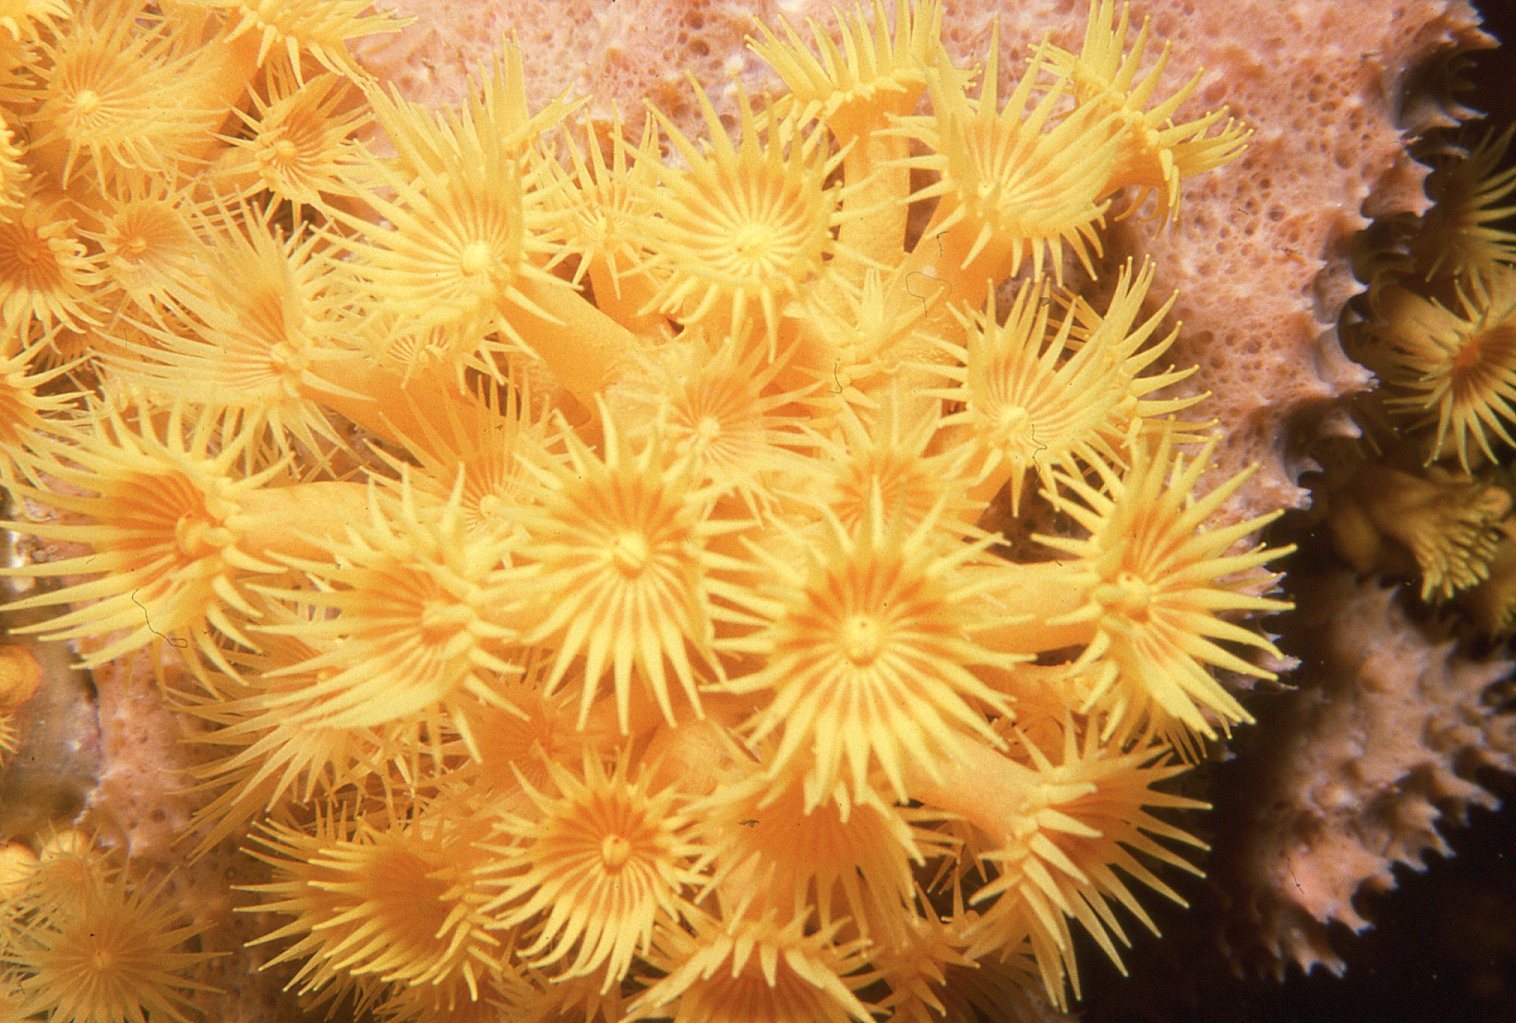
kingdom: Animalia
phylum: Cnidaria
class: Anthozoa
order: Zoantharia
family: Epizoanthidae
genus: Epizoanthus
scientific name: Epizoanthus karenae
